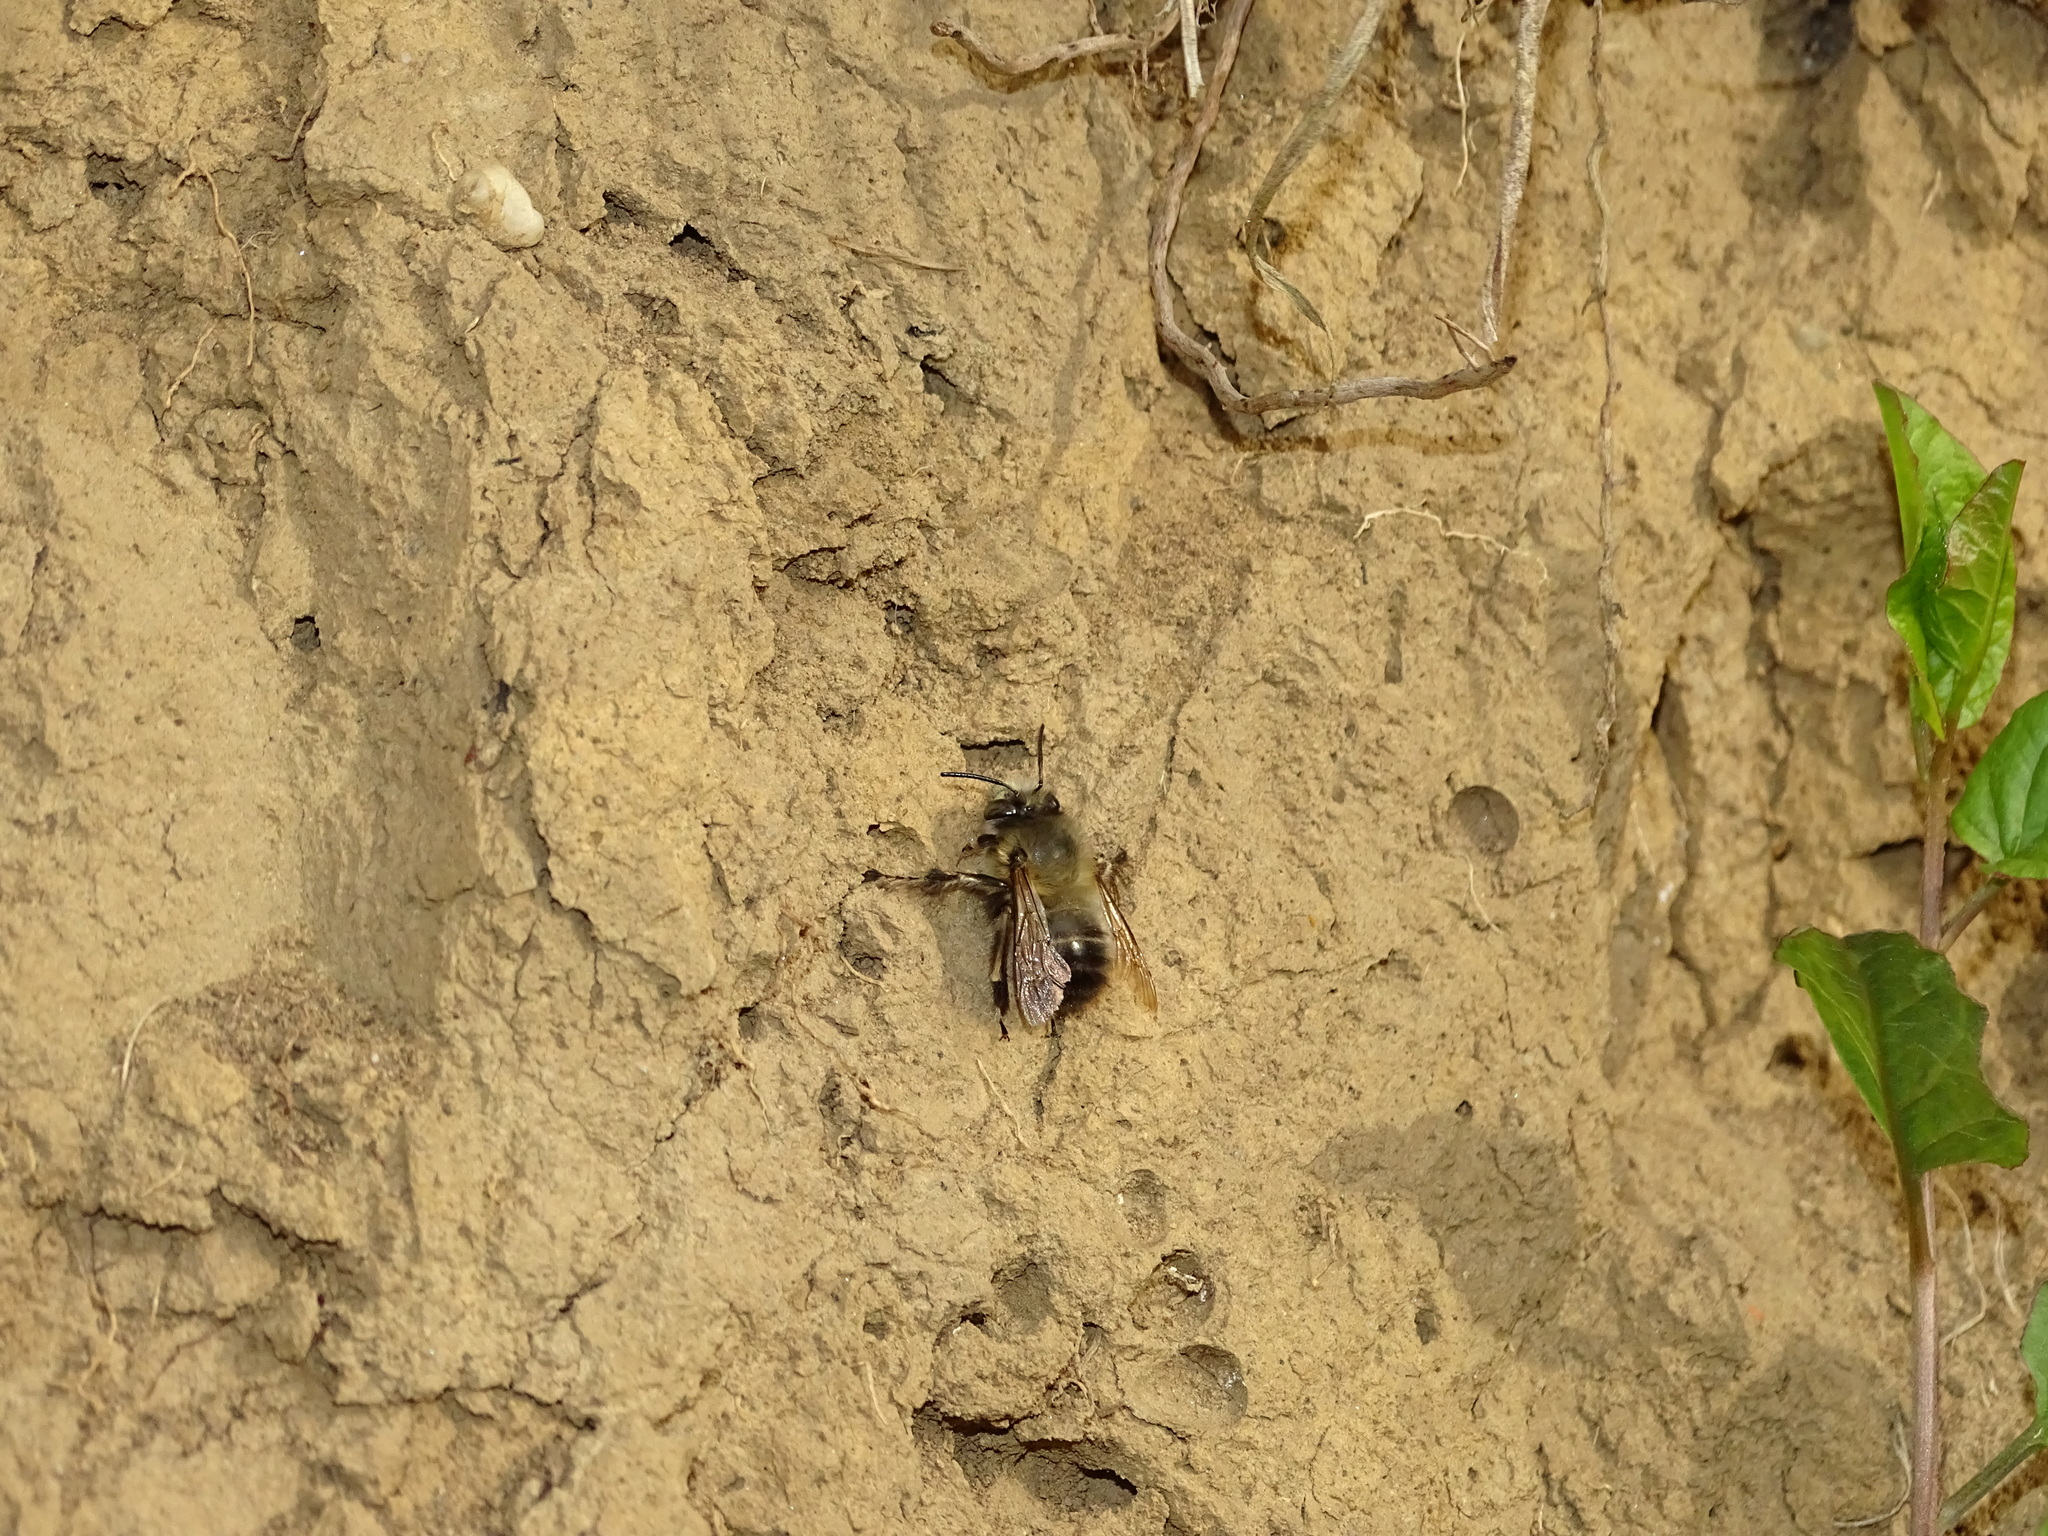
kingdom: Animalia
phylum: Arthropoda
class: Insecta
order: Hymenoptera
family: Apidae
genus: Anthophora
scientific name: Anthophora plumipes
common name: Hairy-footed flower bee
